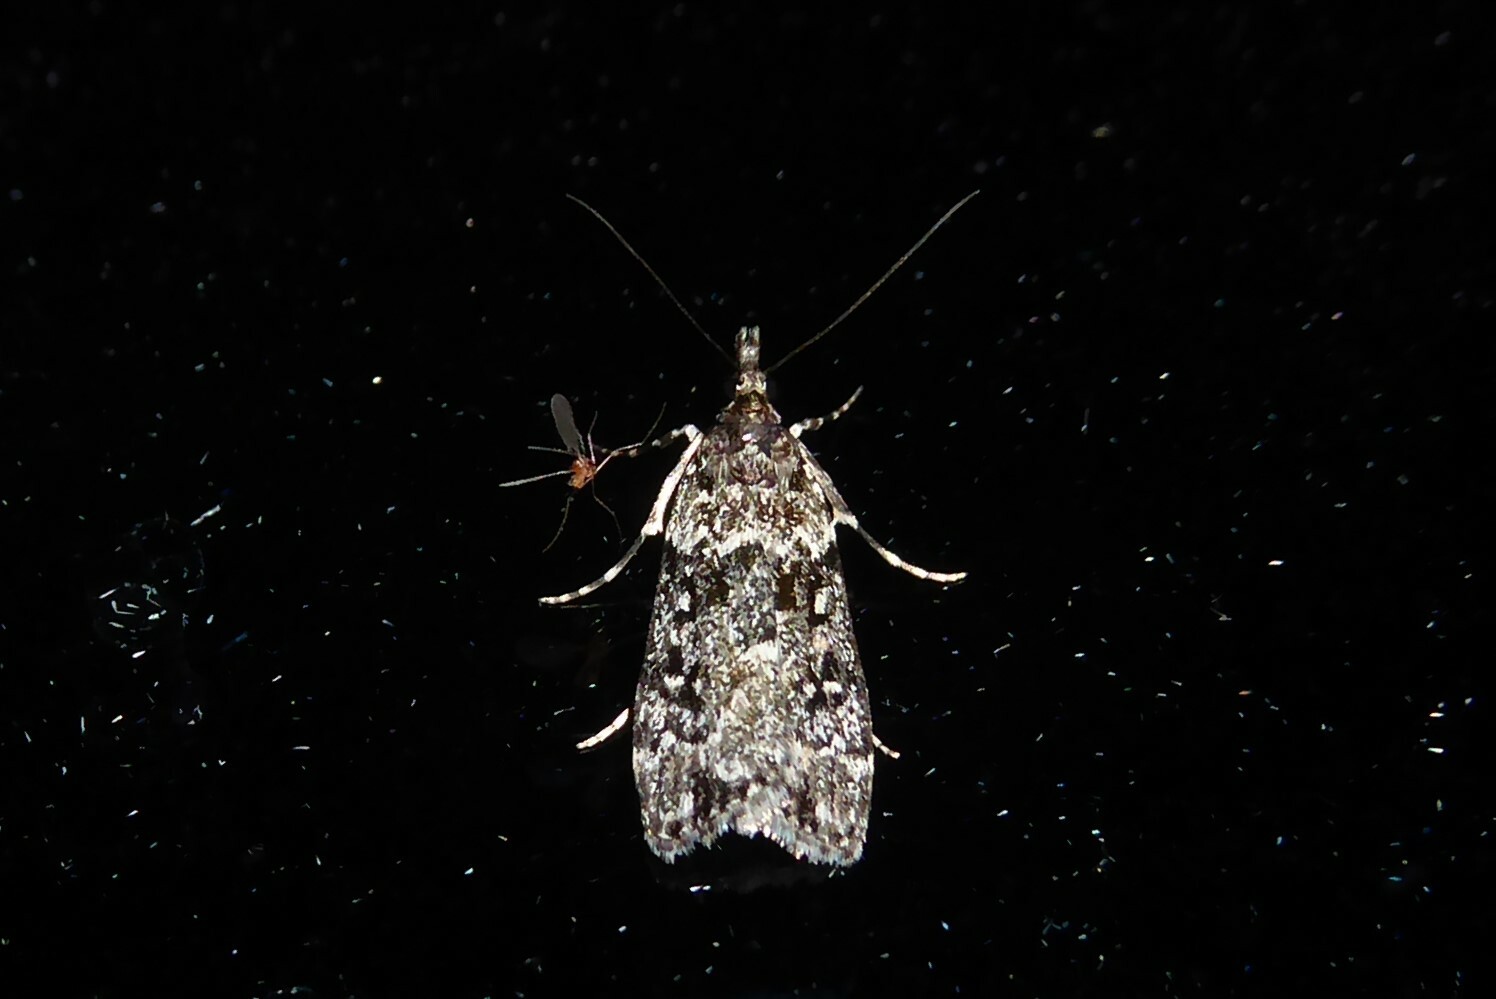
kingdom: Animalia
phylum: Arthropoda
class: Insecta
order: Lepidoptera
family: Crambidae
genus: Eudonia
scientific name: Eudonia philerga
